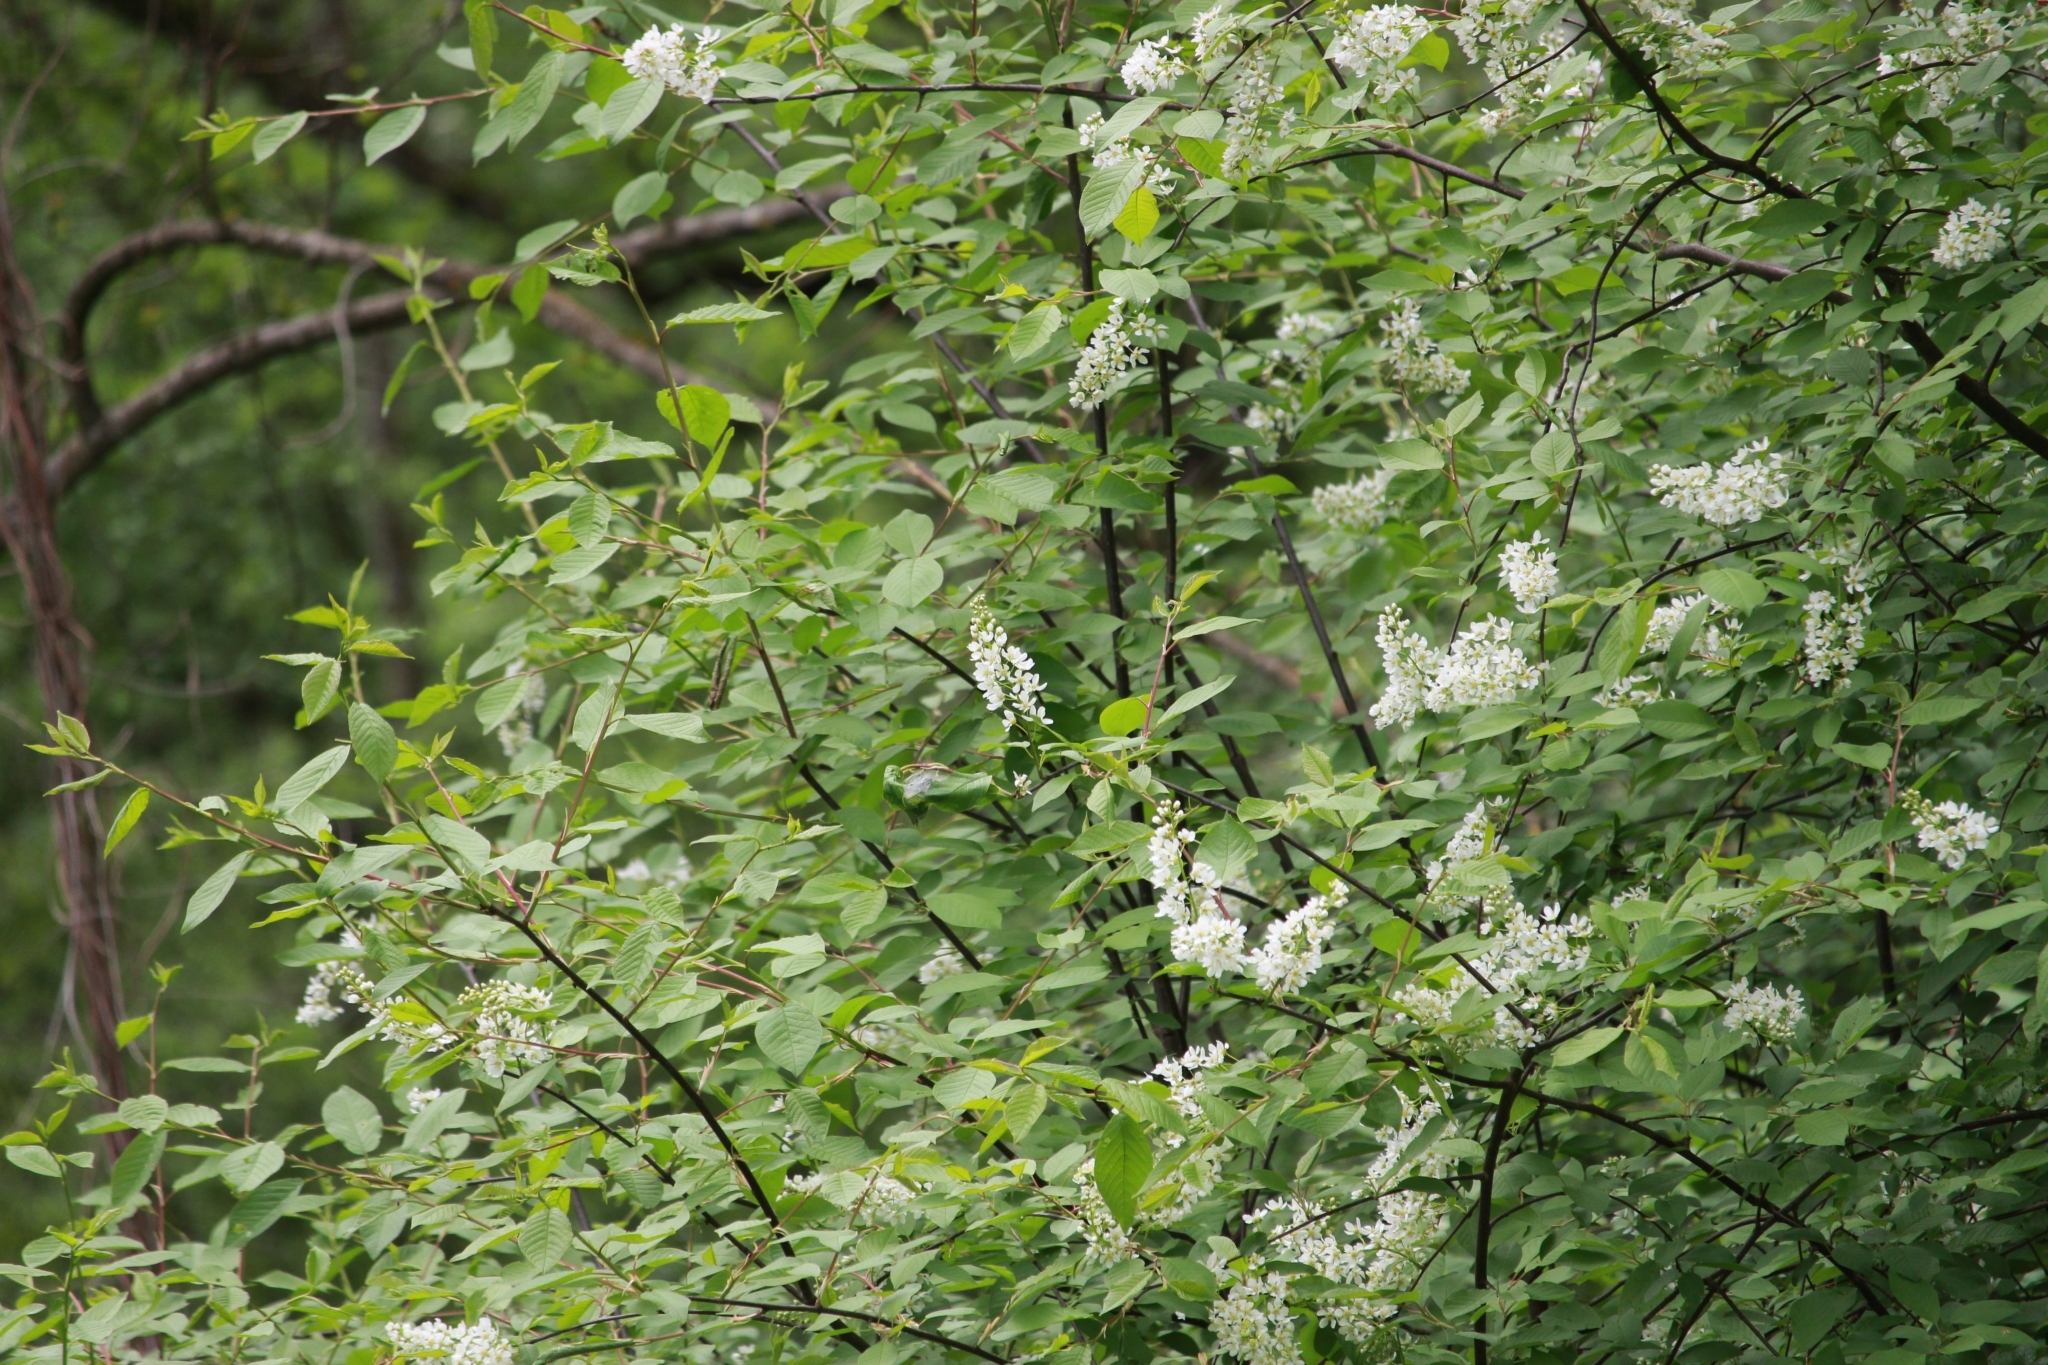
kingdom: Plantae
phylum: Tracheophyta
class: Magnoliopsida
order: Rosales
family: Rosaceae
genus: Prunus
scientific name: Prunus padus
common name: Bird cherry
